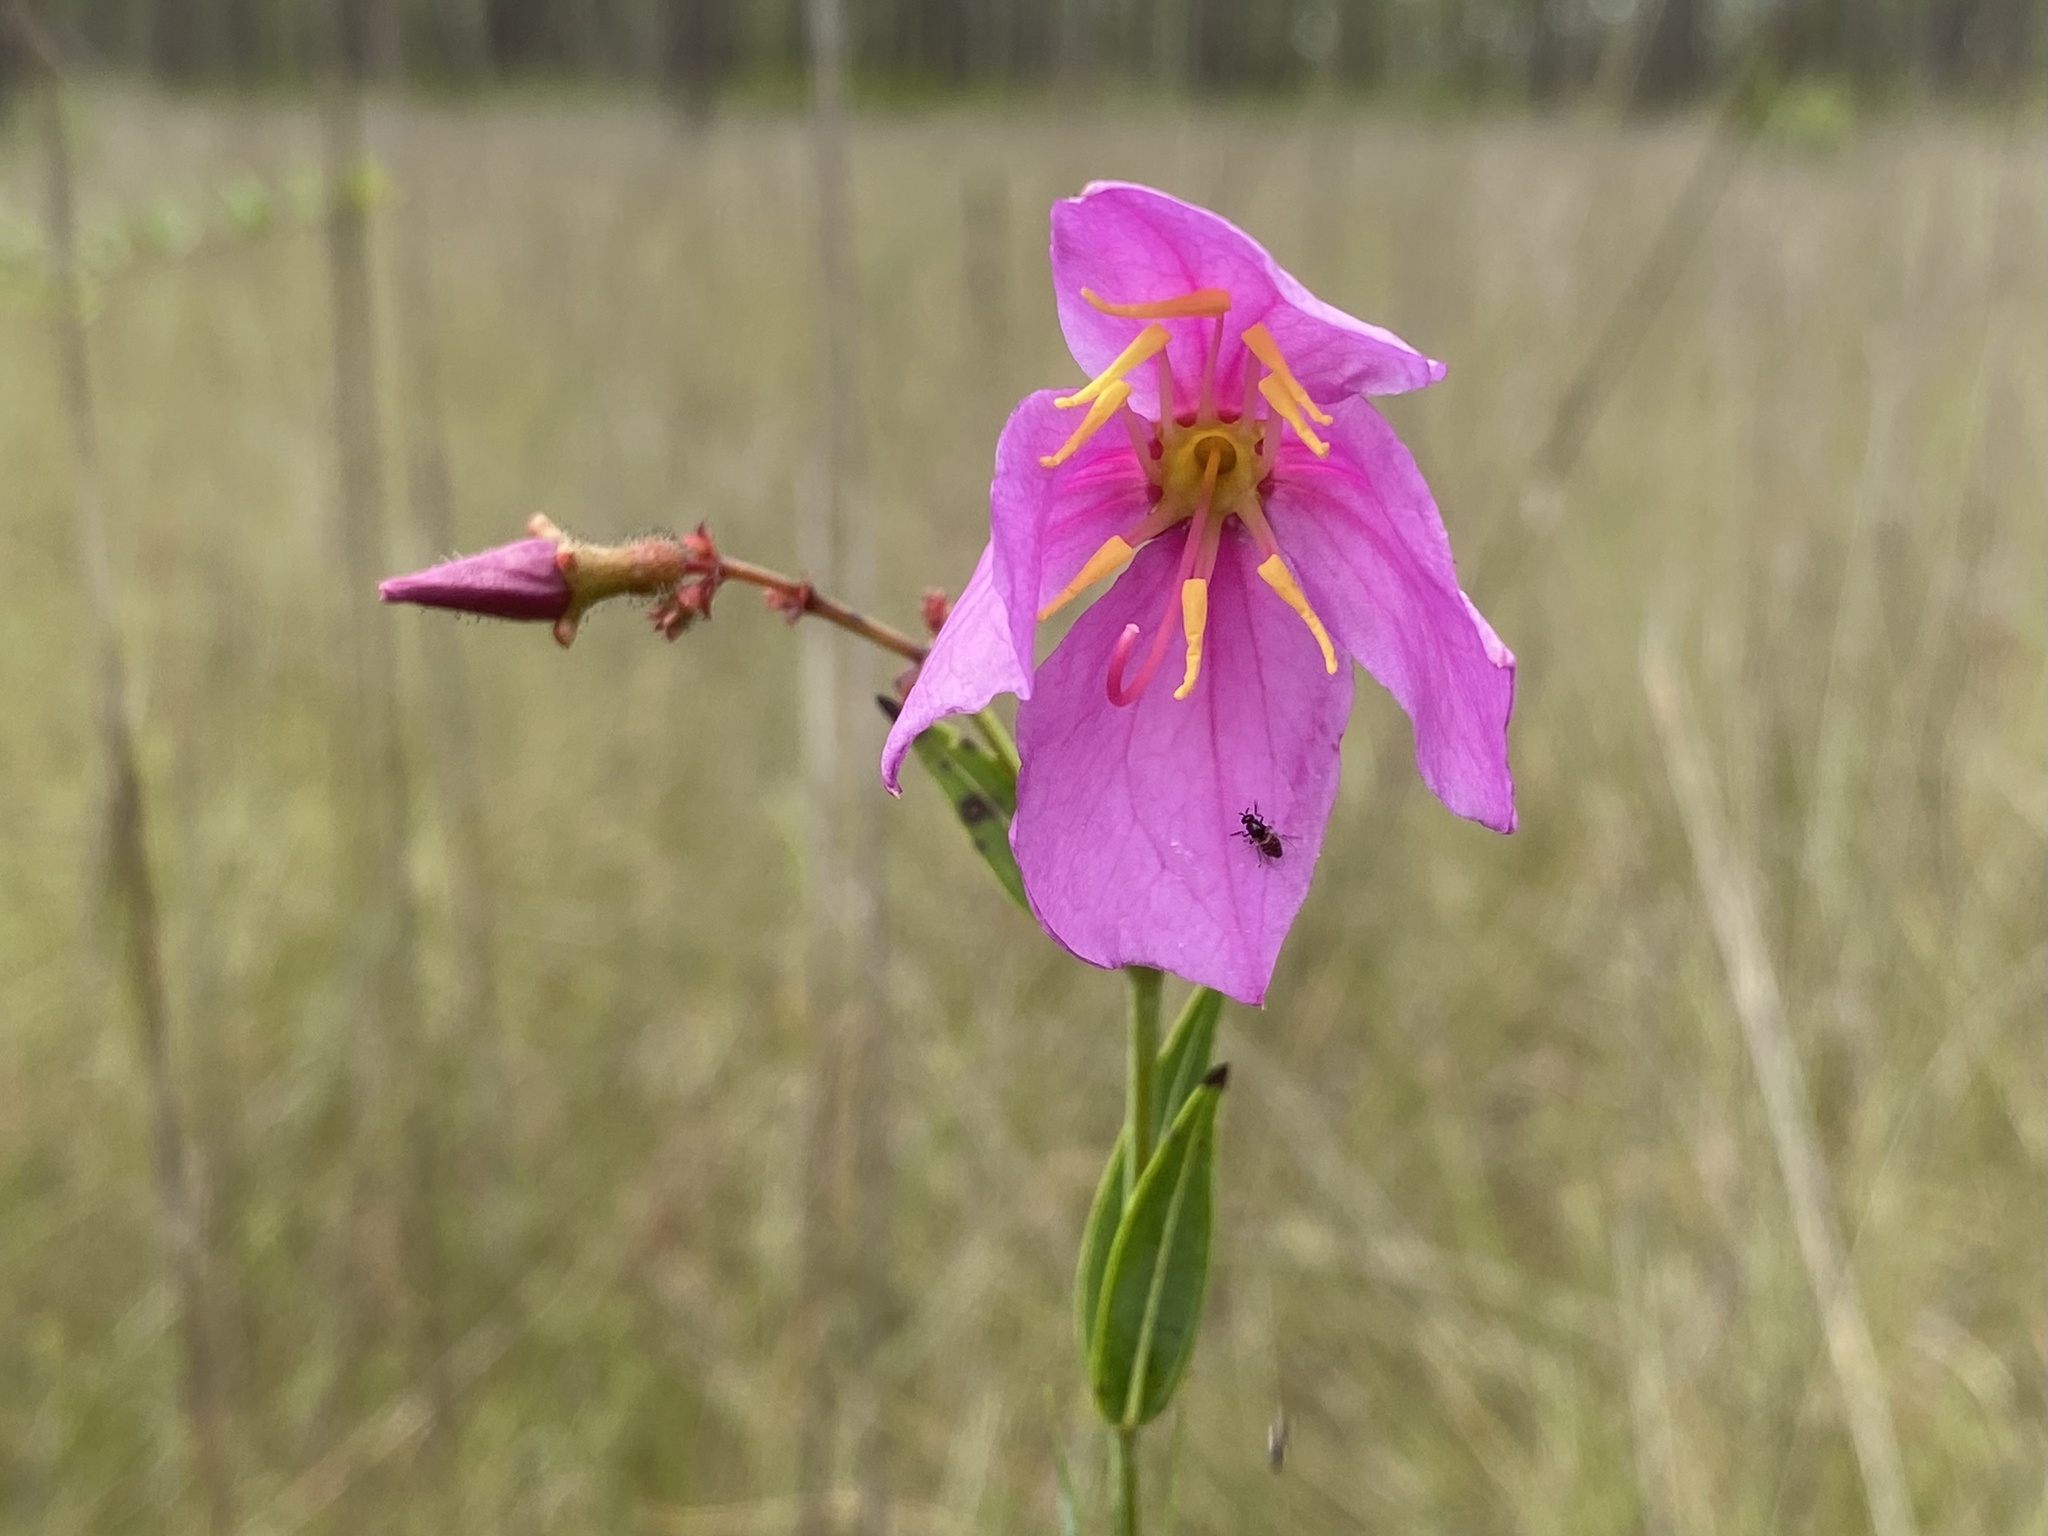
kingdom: Plantae
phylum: Tracheophyta
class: Magnoliopsida
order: Myrtales
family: Melastomataceae
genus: Rhexia
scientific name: Rhexia alifanus
